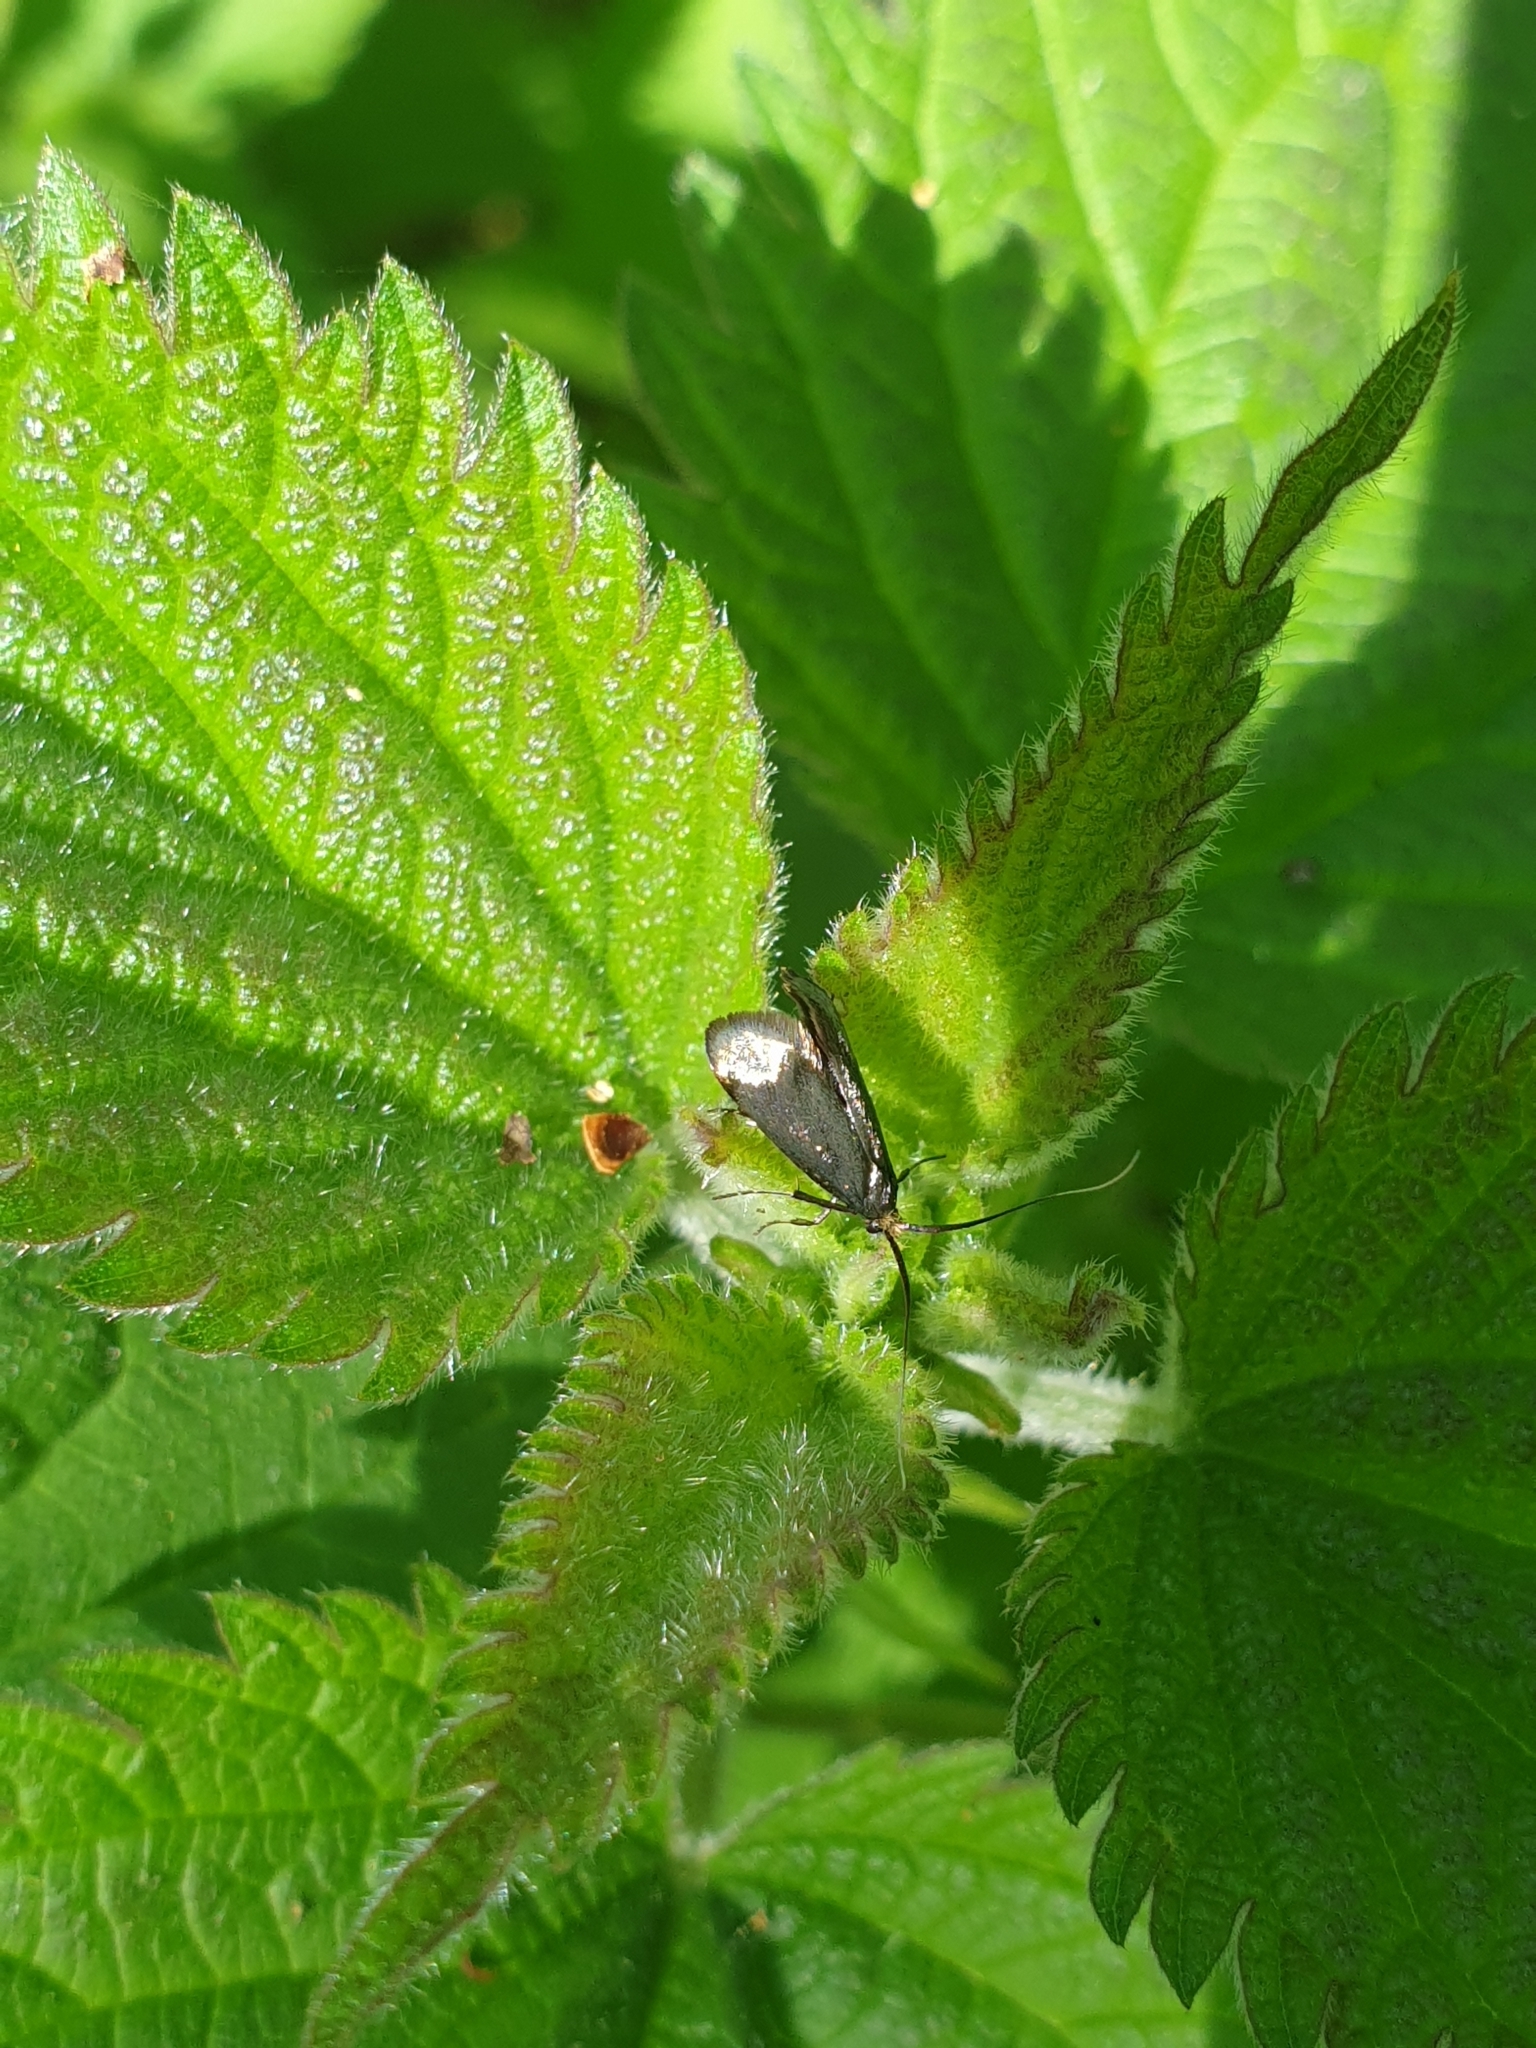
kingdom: Animalia
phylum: Arthropoda
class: Insecta
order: Lepidoptera
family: Adelidae
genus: Adela
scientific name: Adela viridella
